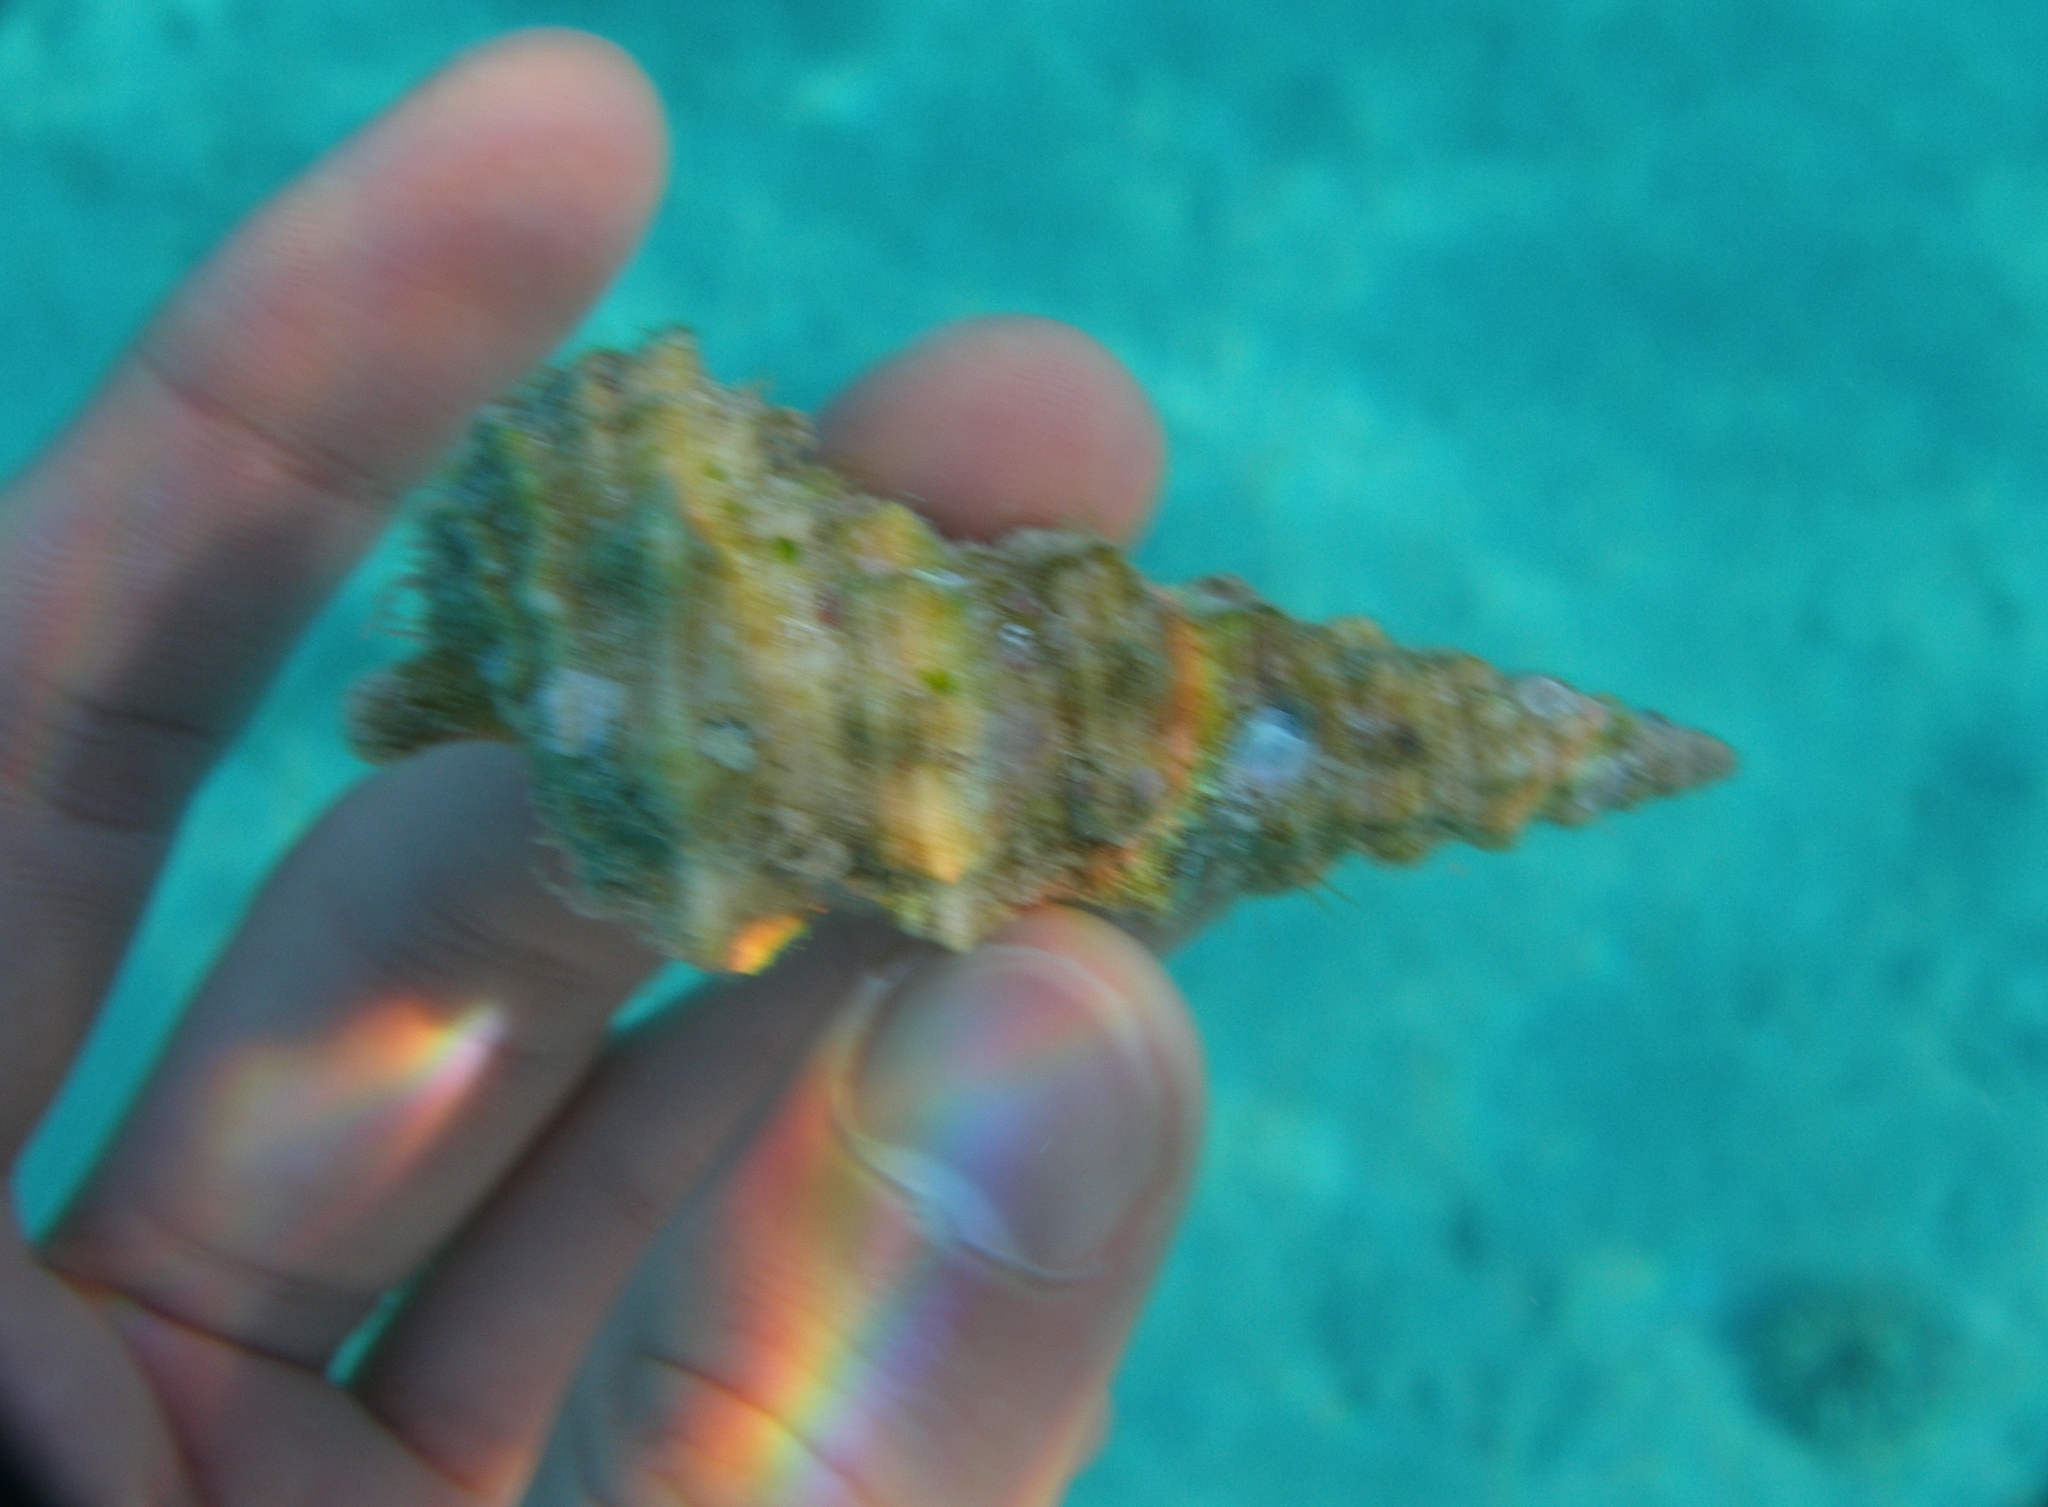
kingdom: Animalia
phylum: Mollusca
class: Gastropoda
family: Cerithiidae
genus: Cerithium
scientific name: Cerithium nodulosum
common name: Nadelschnecke giant knobbed cerith
